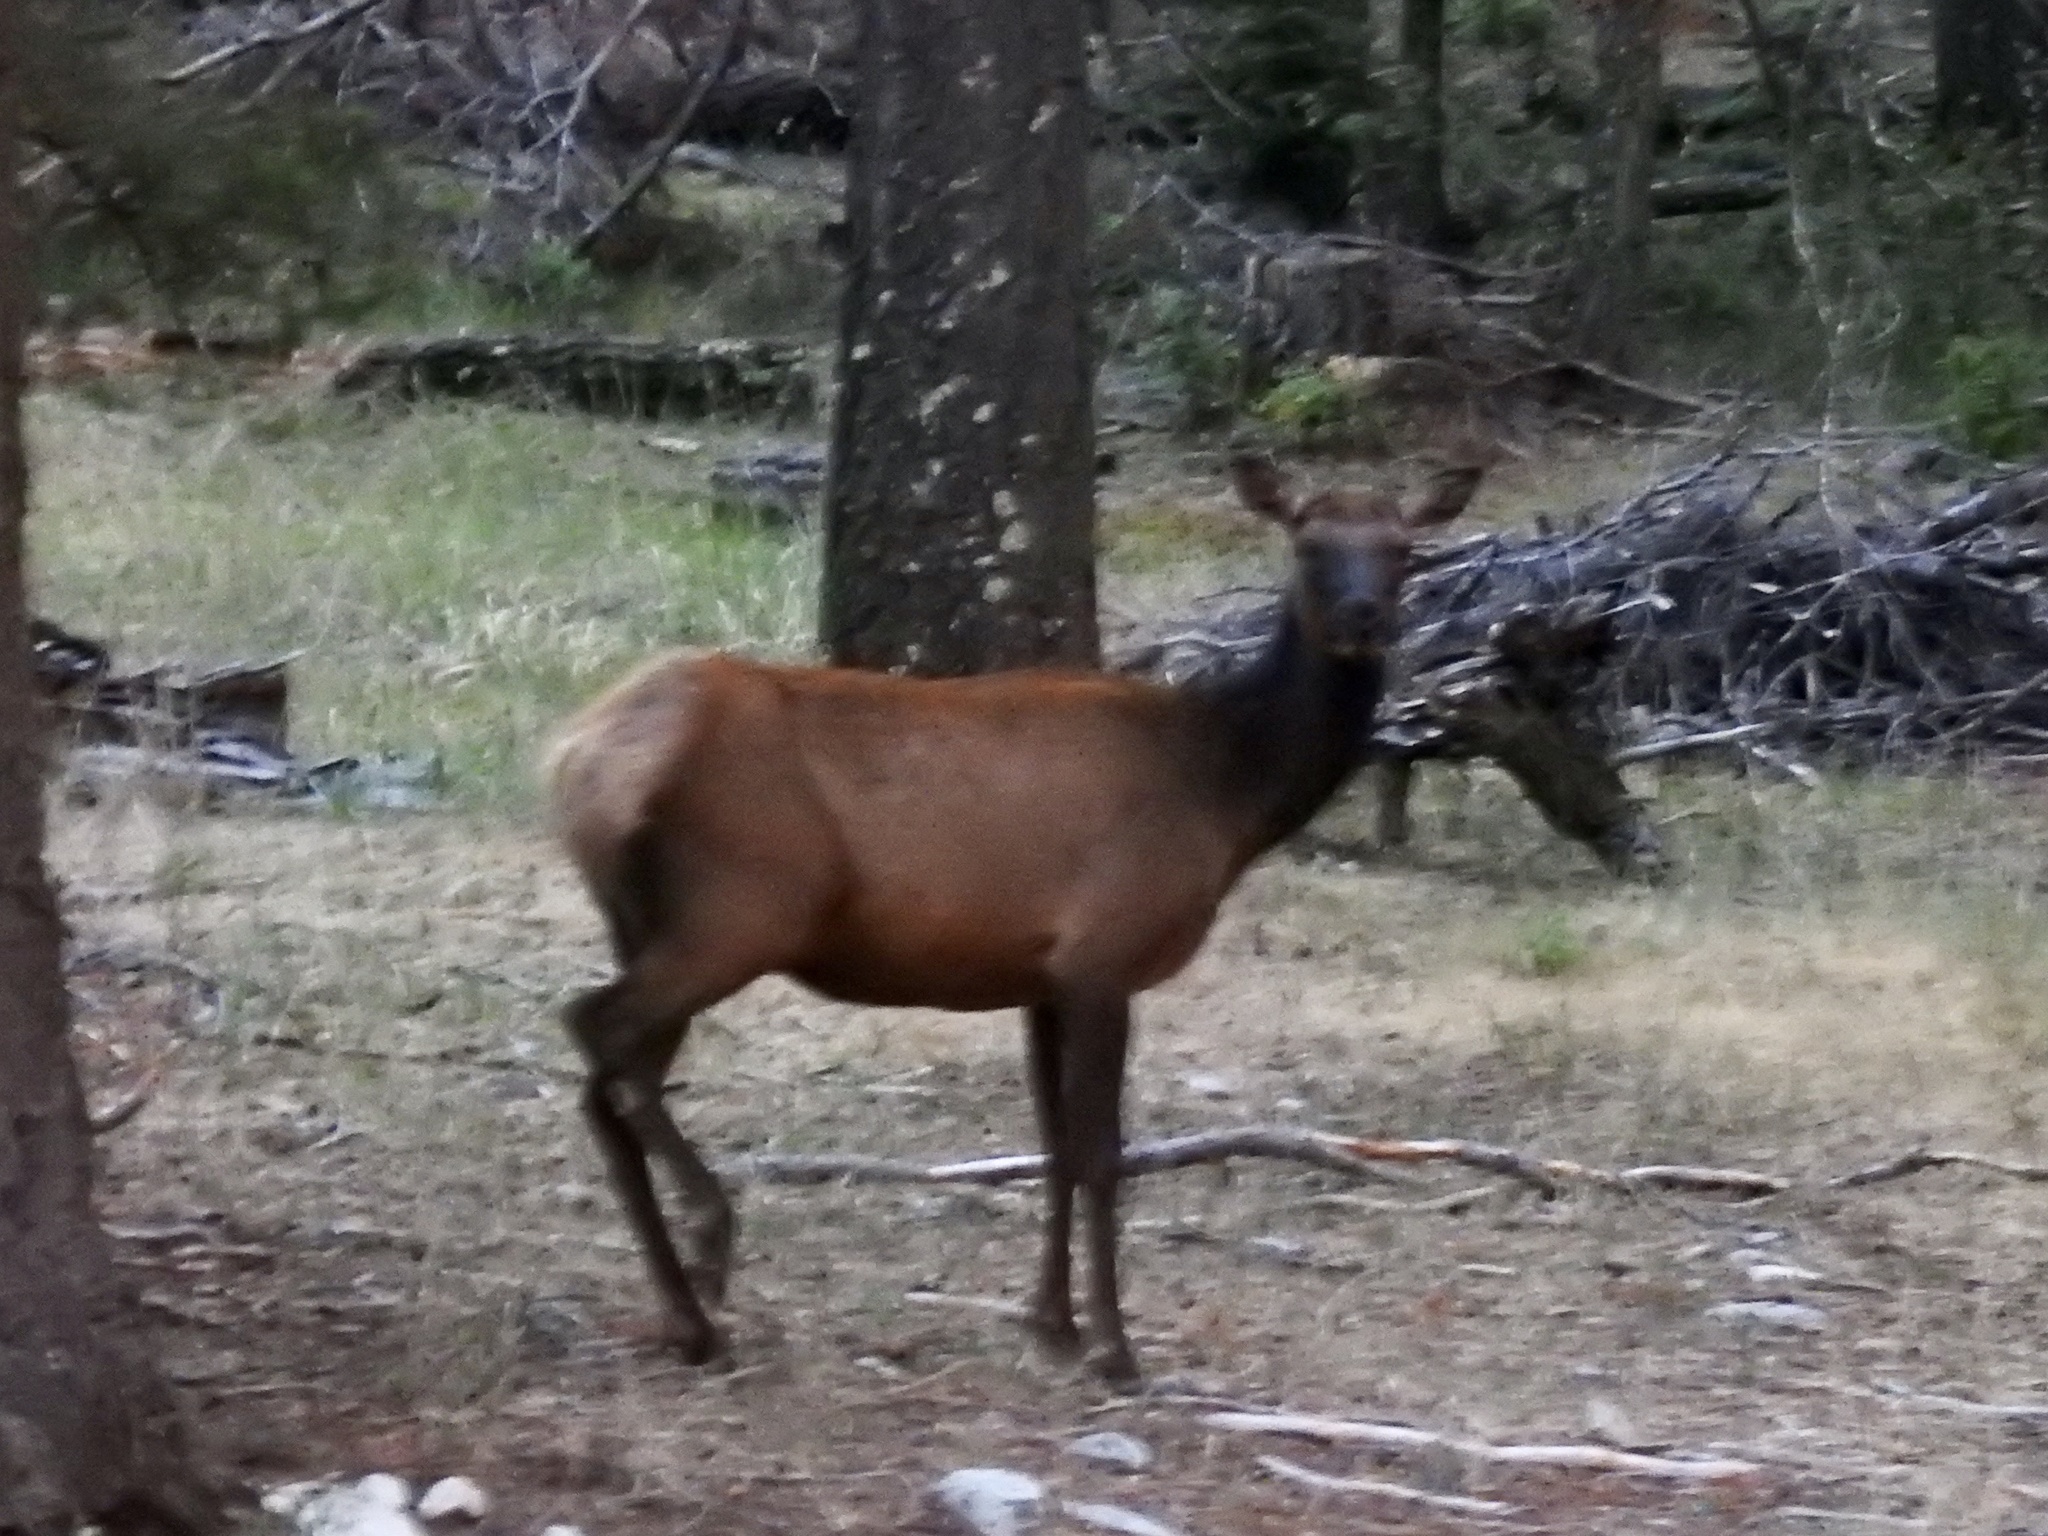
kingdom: Animalia
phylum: Chordata
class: Mammalia
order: Artiodactyla
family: Cervidae
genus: Cervus
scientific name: Cervus elaphus
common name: Red deer
